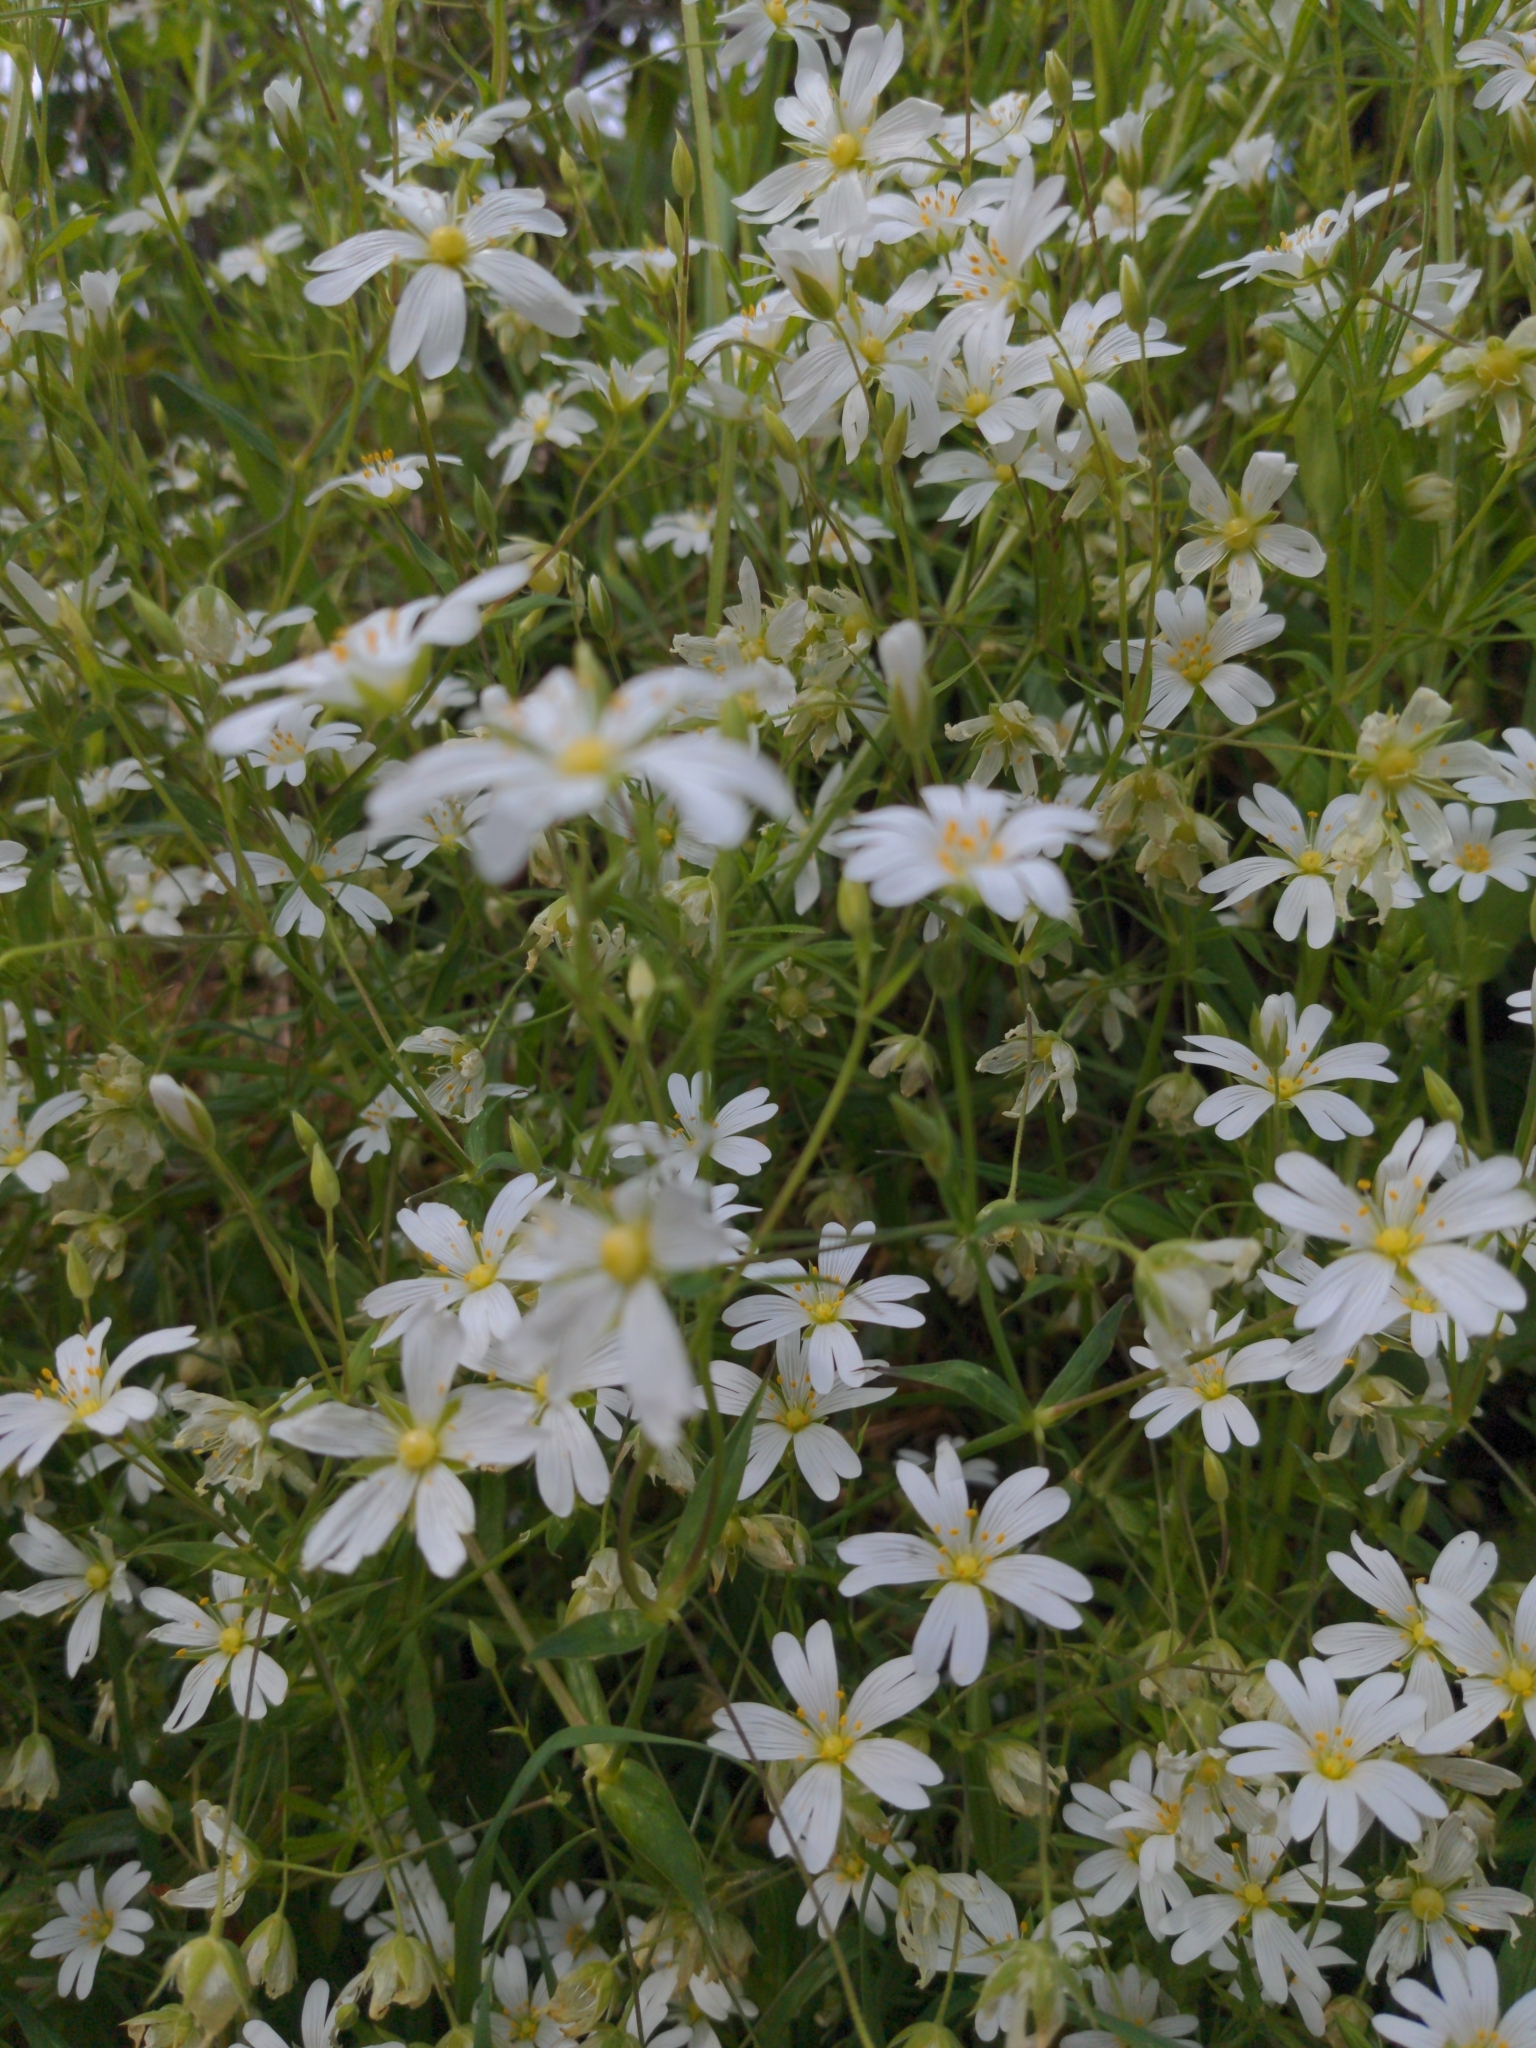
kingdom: Plantae
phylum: Tracheophyta
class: Magnoliopsida
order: Caryophyllales
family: Caryophyllaceae
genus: Rabelera
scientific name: Rabelera holostea
